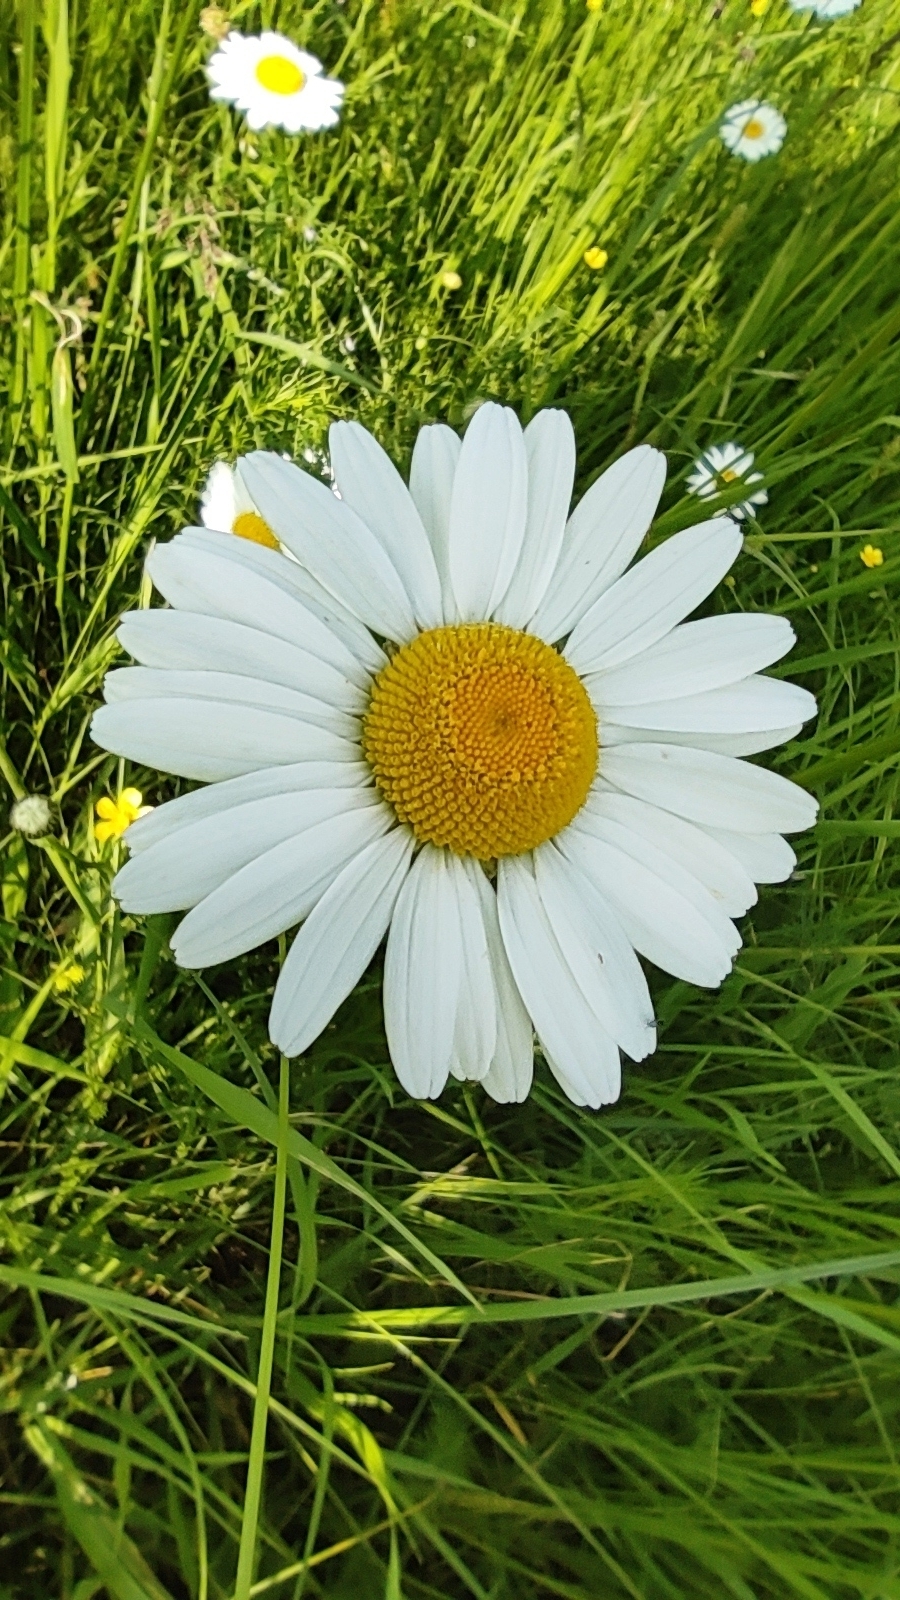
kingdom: Plantae
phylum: Tracheophyta
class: Magnoliopsida
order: Asterales
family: Asteraceae
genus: Leucanthemum
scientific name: Leucanthemum vulgare
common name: Oxeye daisy
